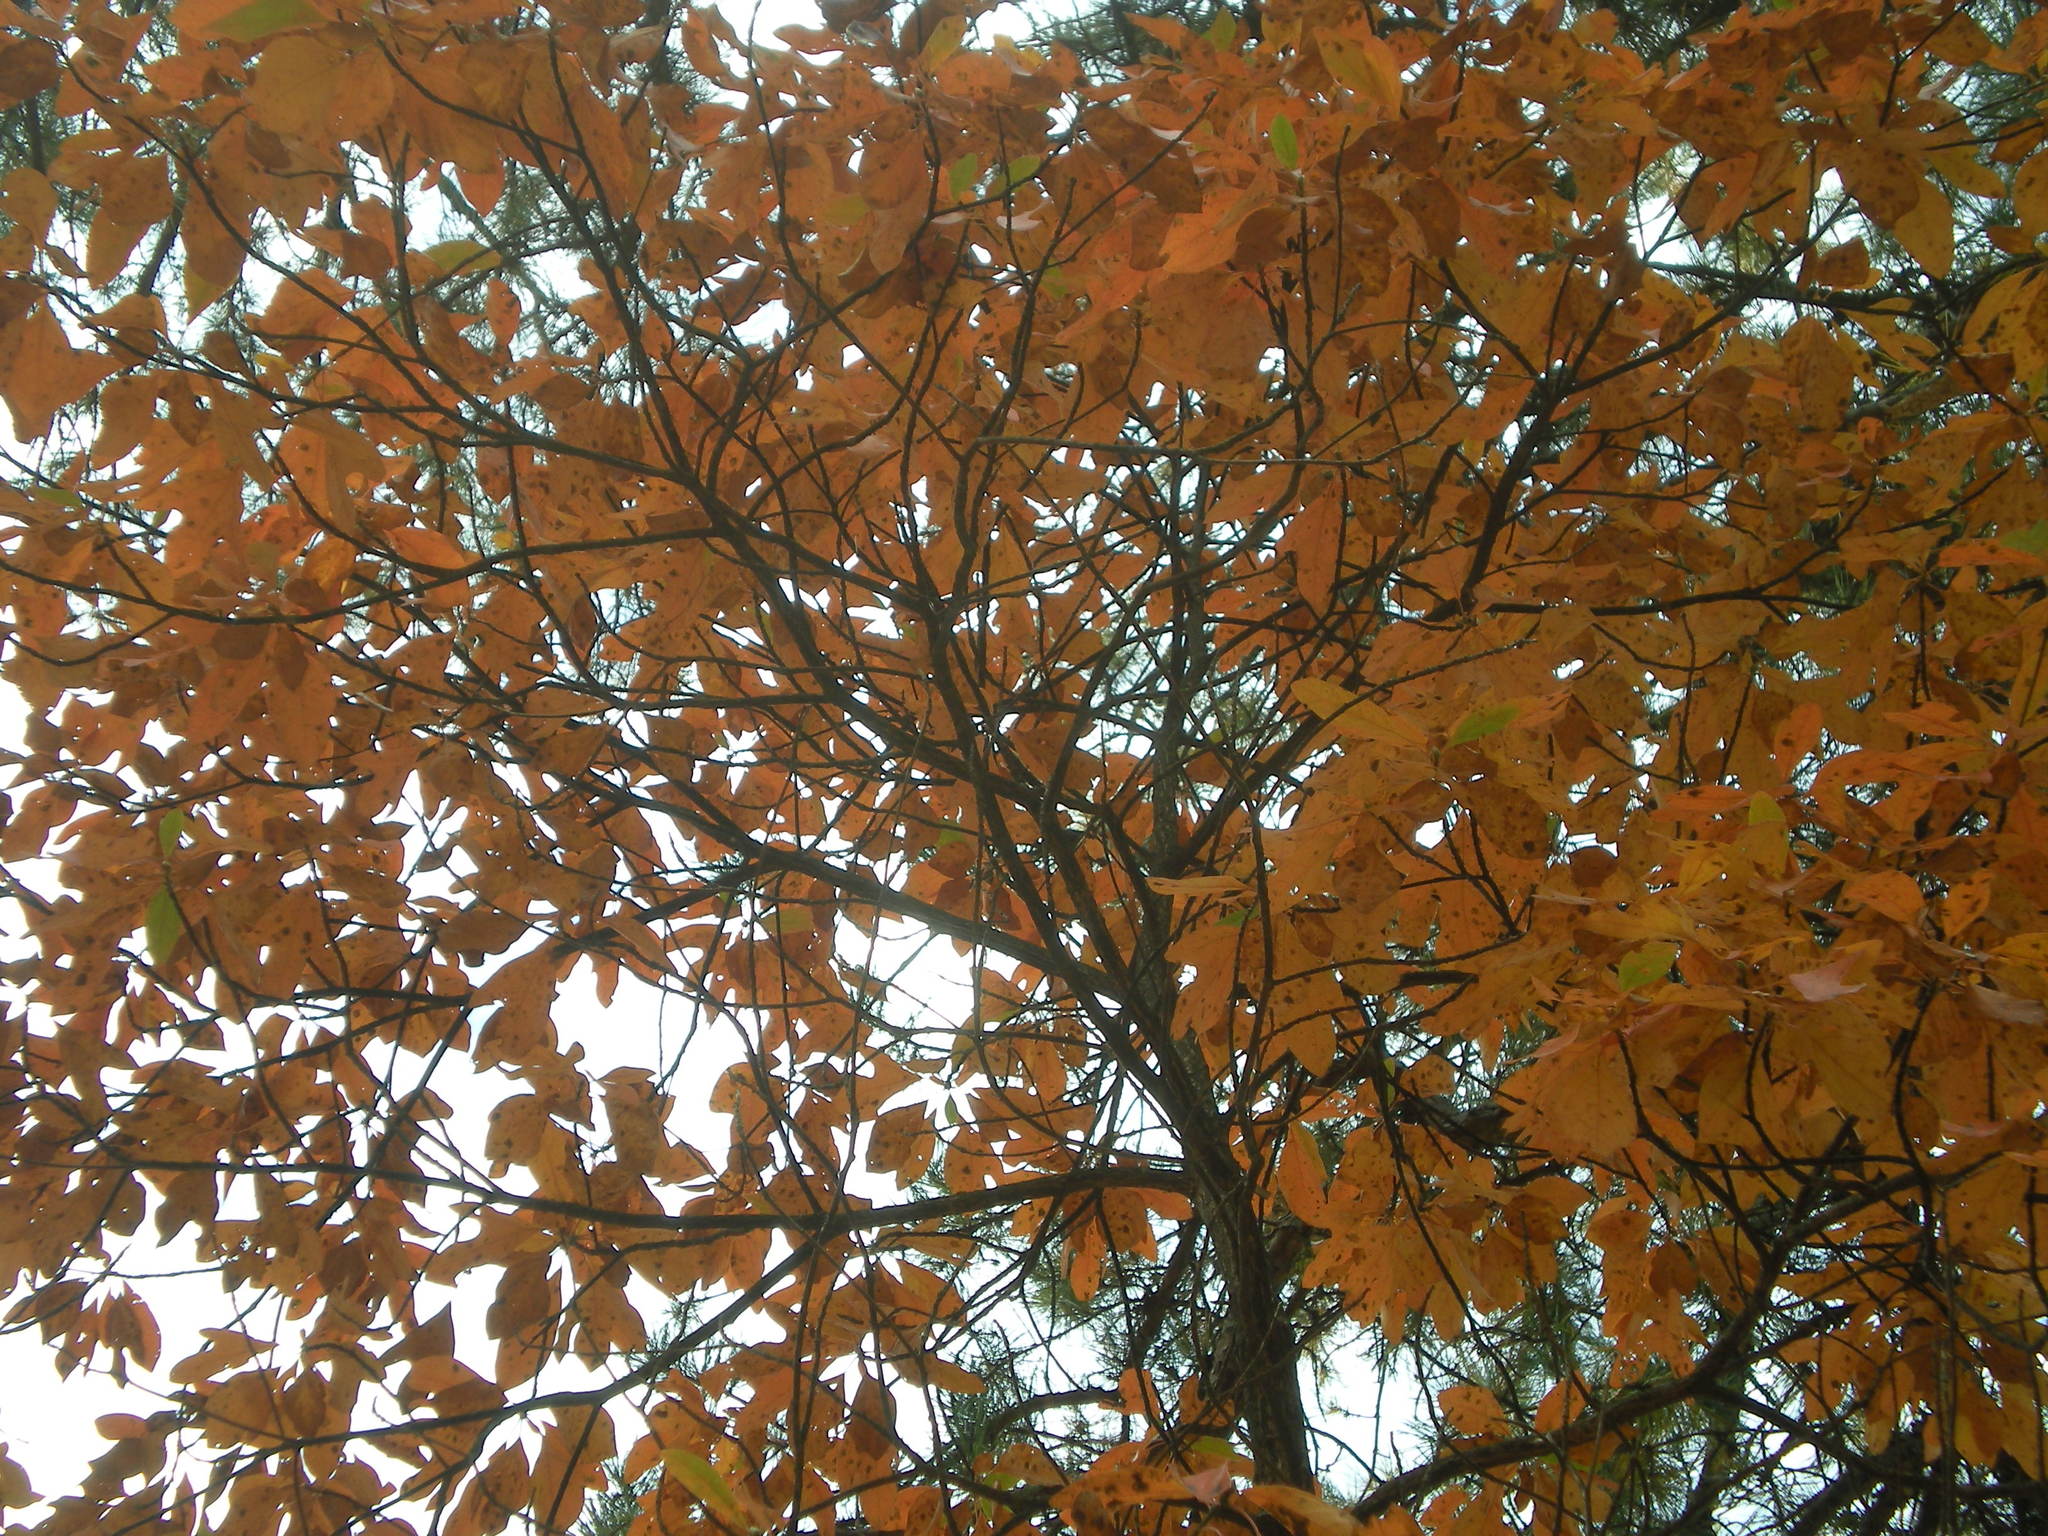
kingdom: Plantae
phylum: Tracheophyta
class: Magnoliopsida
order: Laurales
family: Lauraceae
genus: Sassafras
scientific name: Sassafras albidum
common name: Sassafras
